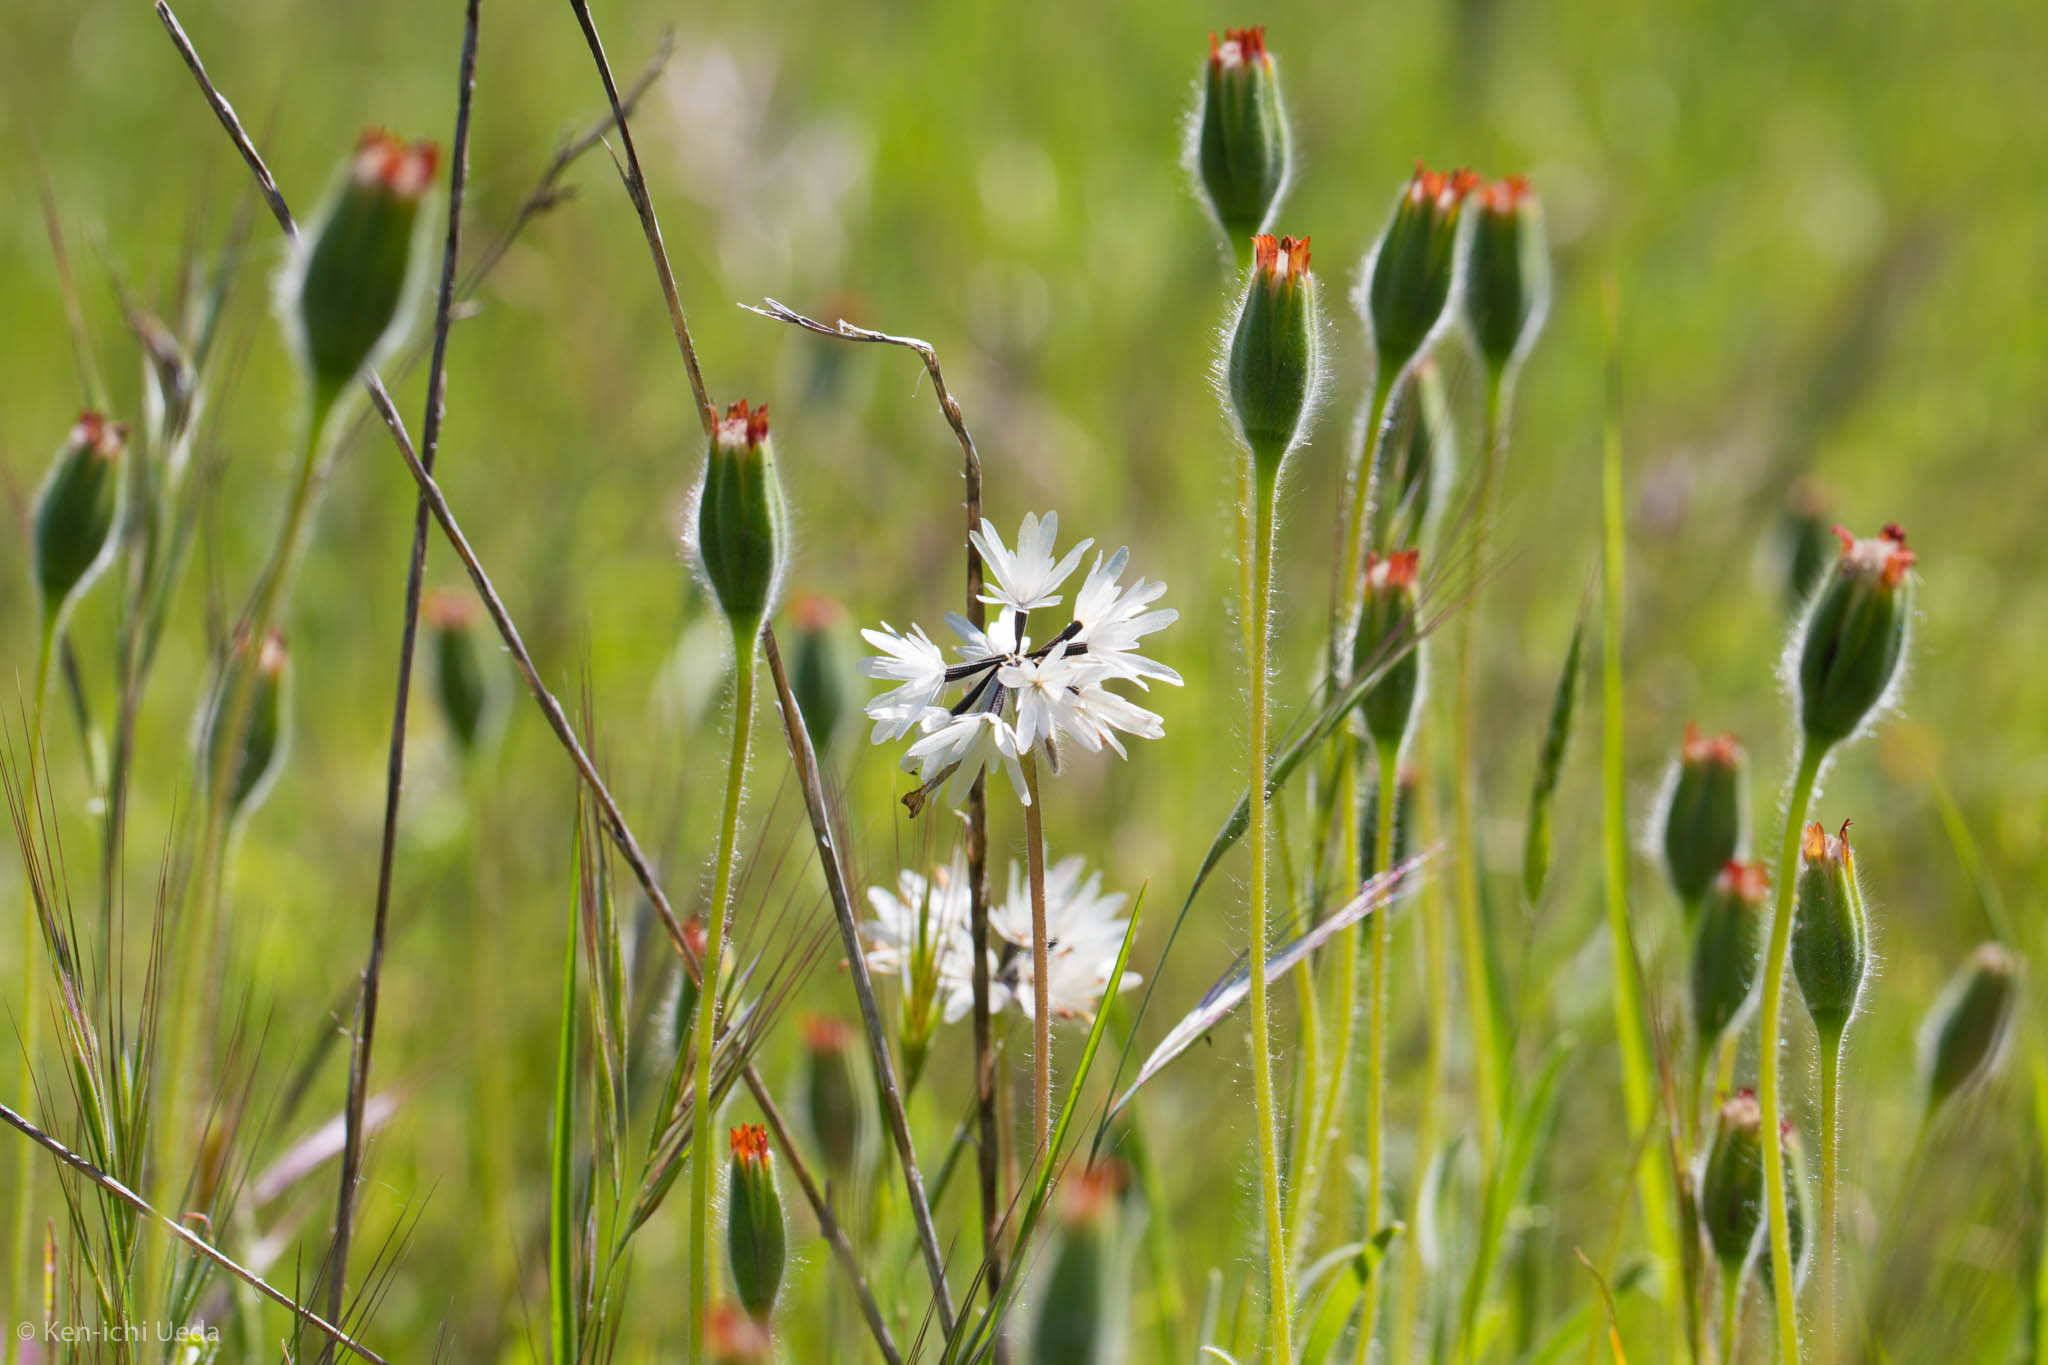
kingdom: Plantae
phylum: Tracheophyta
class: Magnoliopsida
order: Asterales
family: Asteraceae
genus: Achyrachaena
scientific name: Achyrachaena mollis
